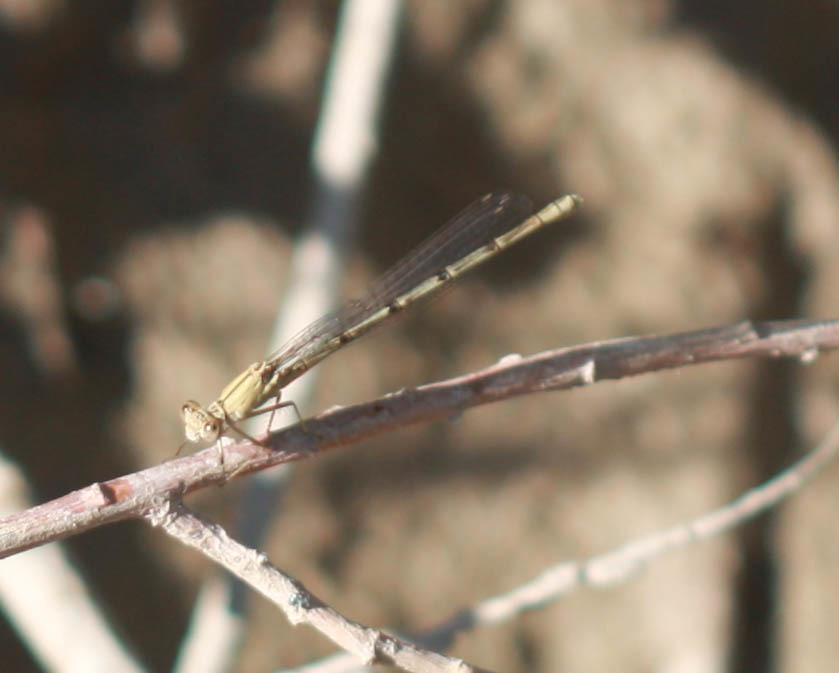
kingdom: Animalia
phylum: Arthropoda
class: Insecta
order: Odonata
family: Coenagrionidae
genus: Argia
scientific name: Argia emma
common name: Emma's dancer
